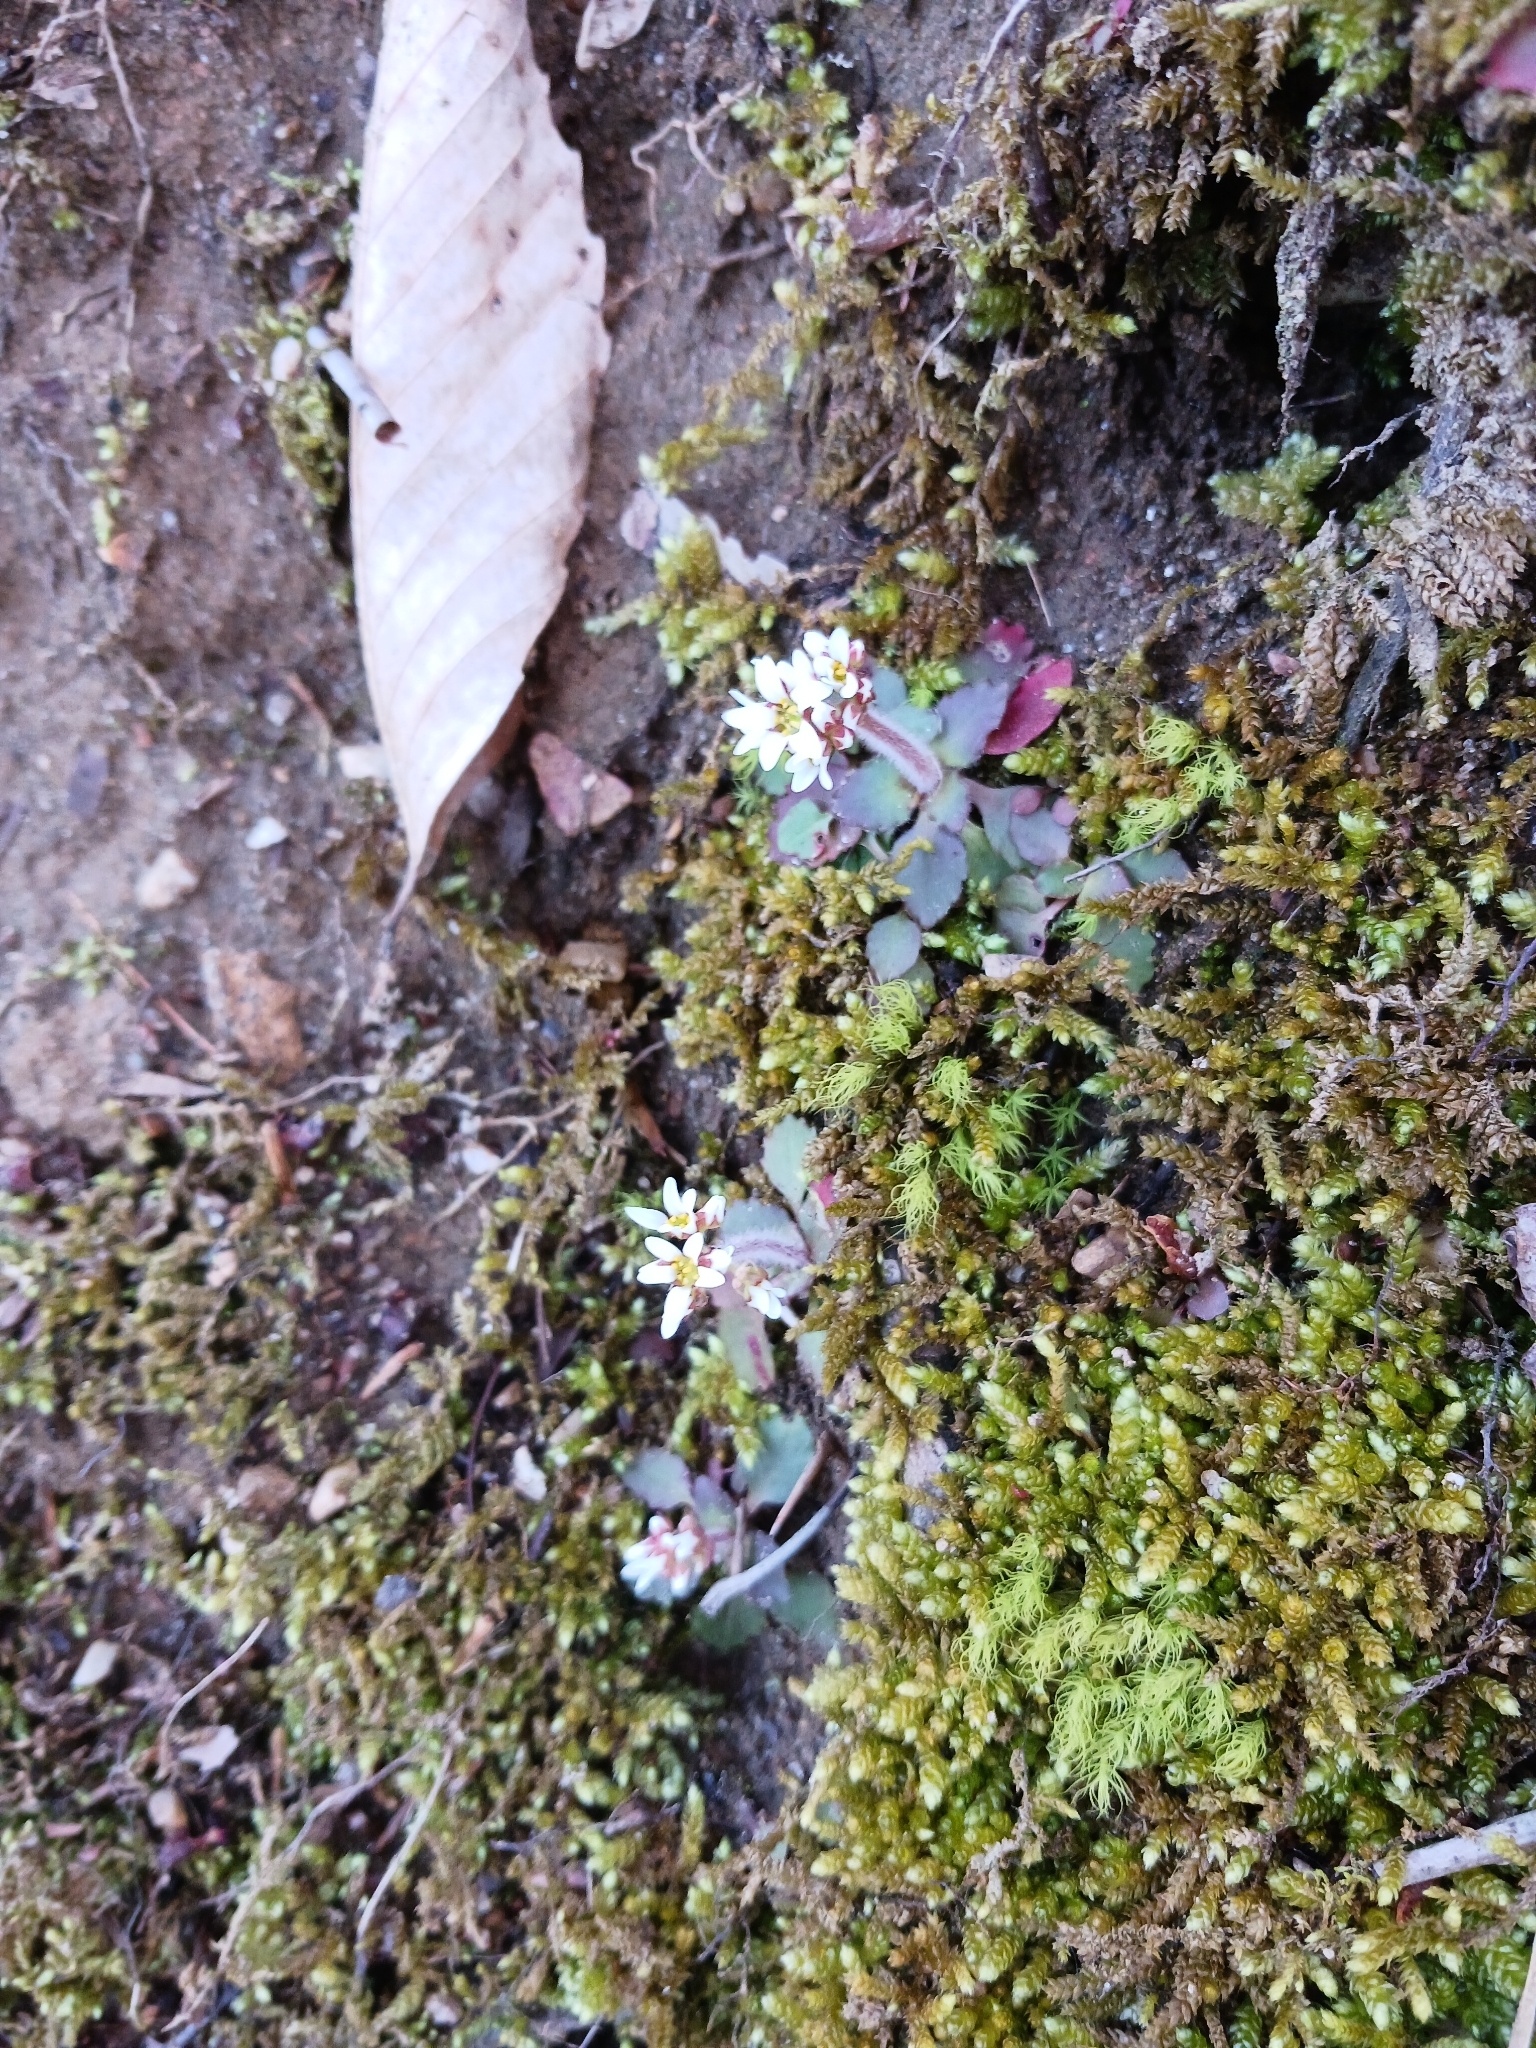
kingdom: Plantae
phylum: Tracheophyta
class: Magnoliopsida
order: Saxifragales
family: Saxifragaceae
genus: Micranthes
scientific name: Micranthes virginiensis
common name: Early saxifrage
